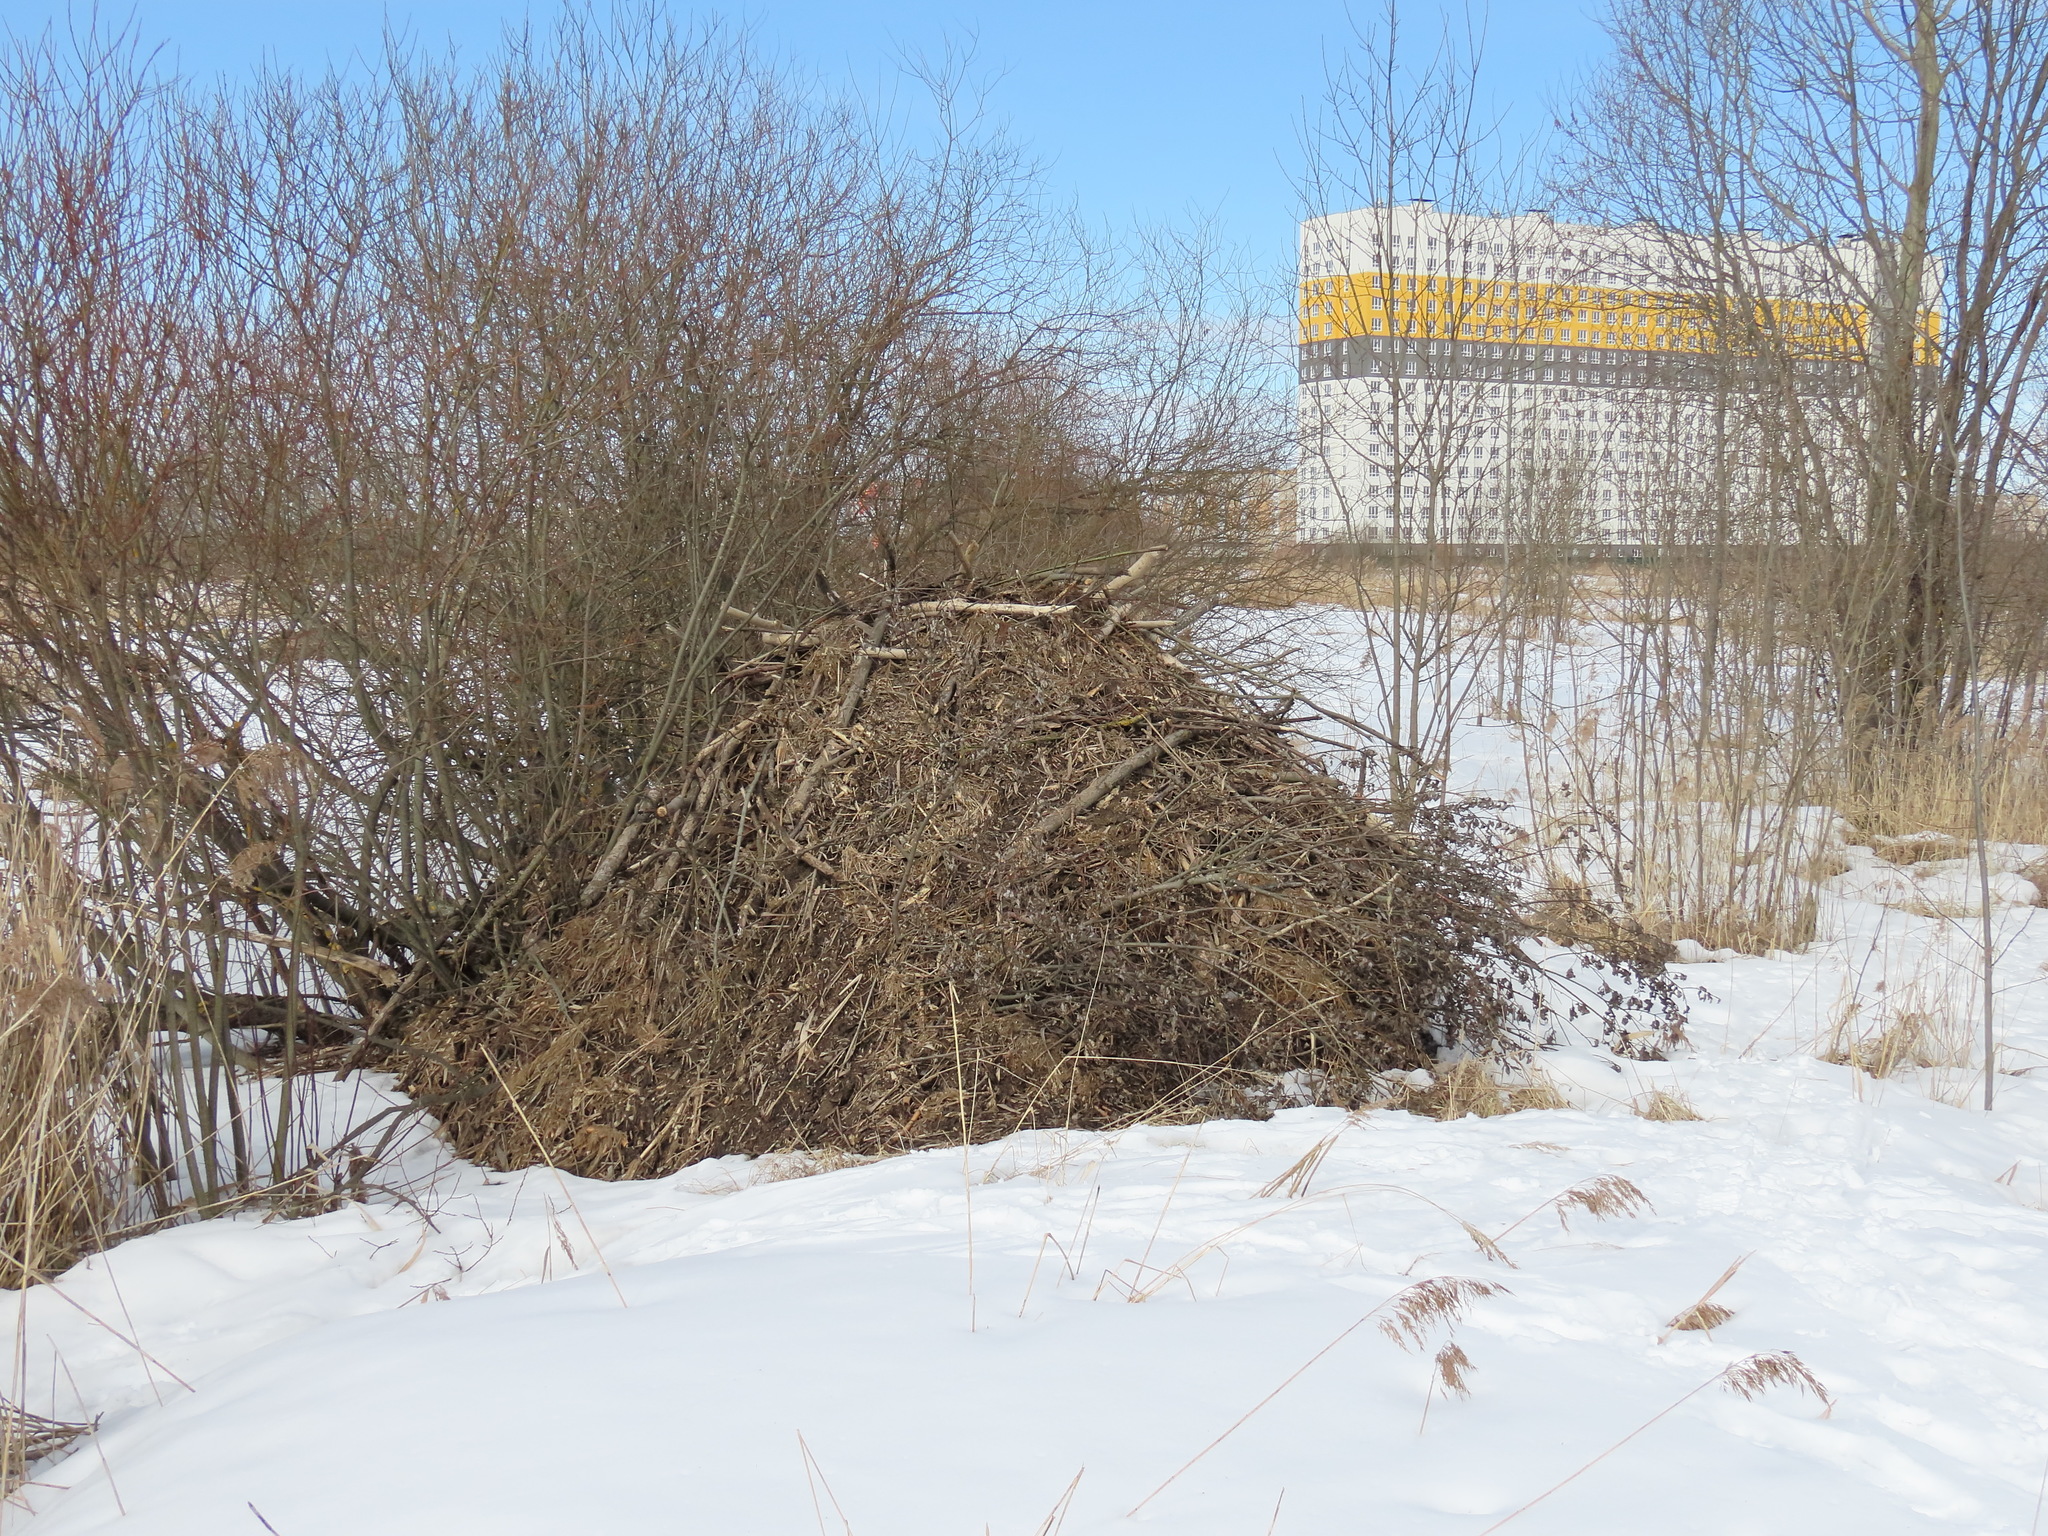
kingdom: Animalia
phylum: Chordata
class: Mammalia
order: Rodentia
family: Castoridae
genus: Castor
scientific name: Castor fiber
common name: Eurasian beaver
